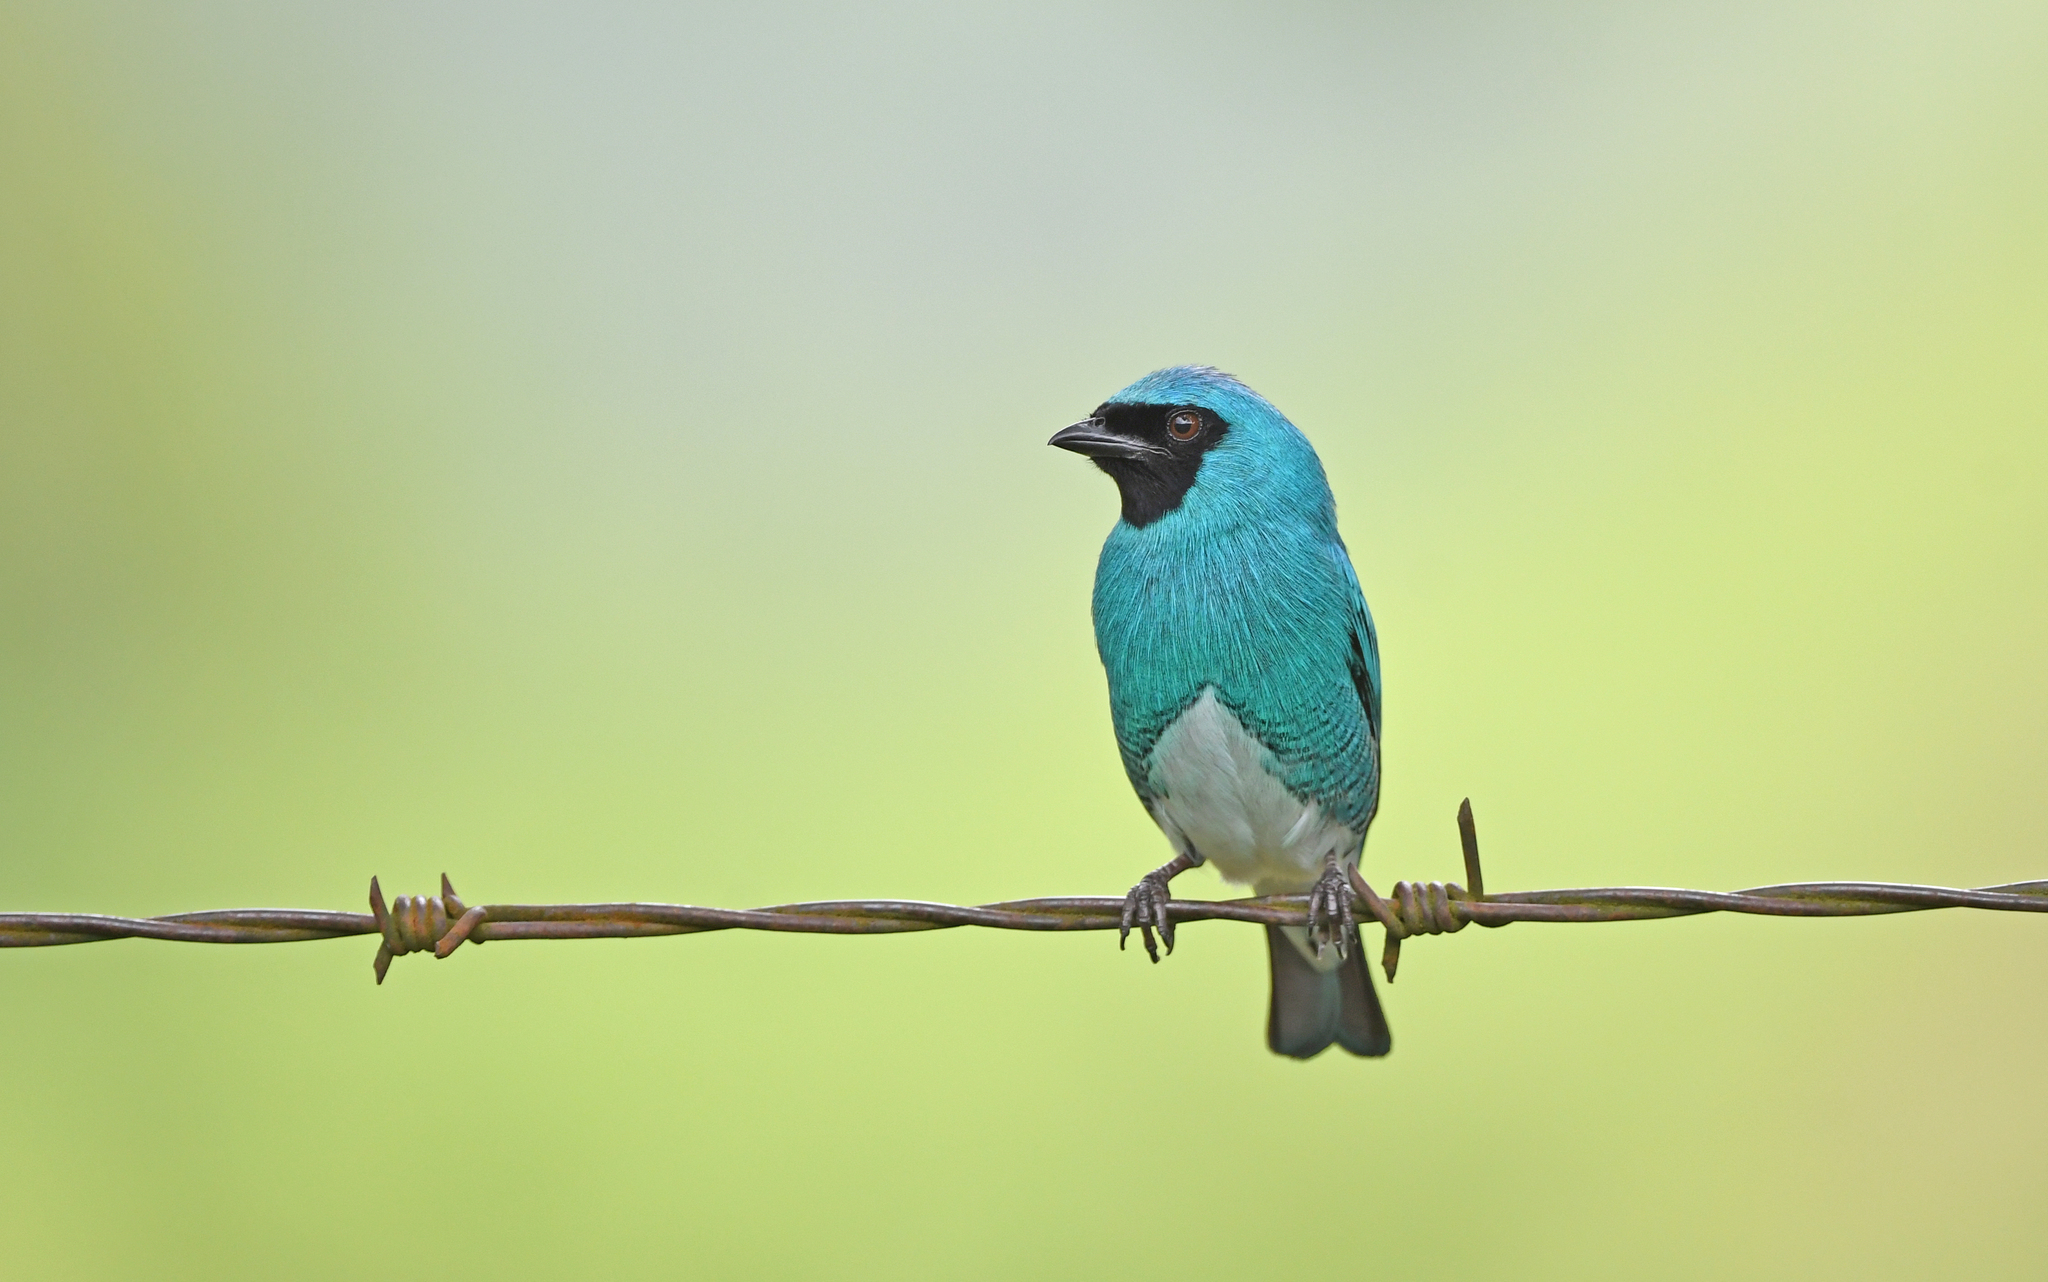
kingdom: Animalia
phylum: Chordata
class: Aves
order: Passeriformes
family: Thraupidae
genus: Tersina
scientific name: Tersina viridis
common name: Swallow tanager
